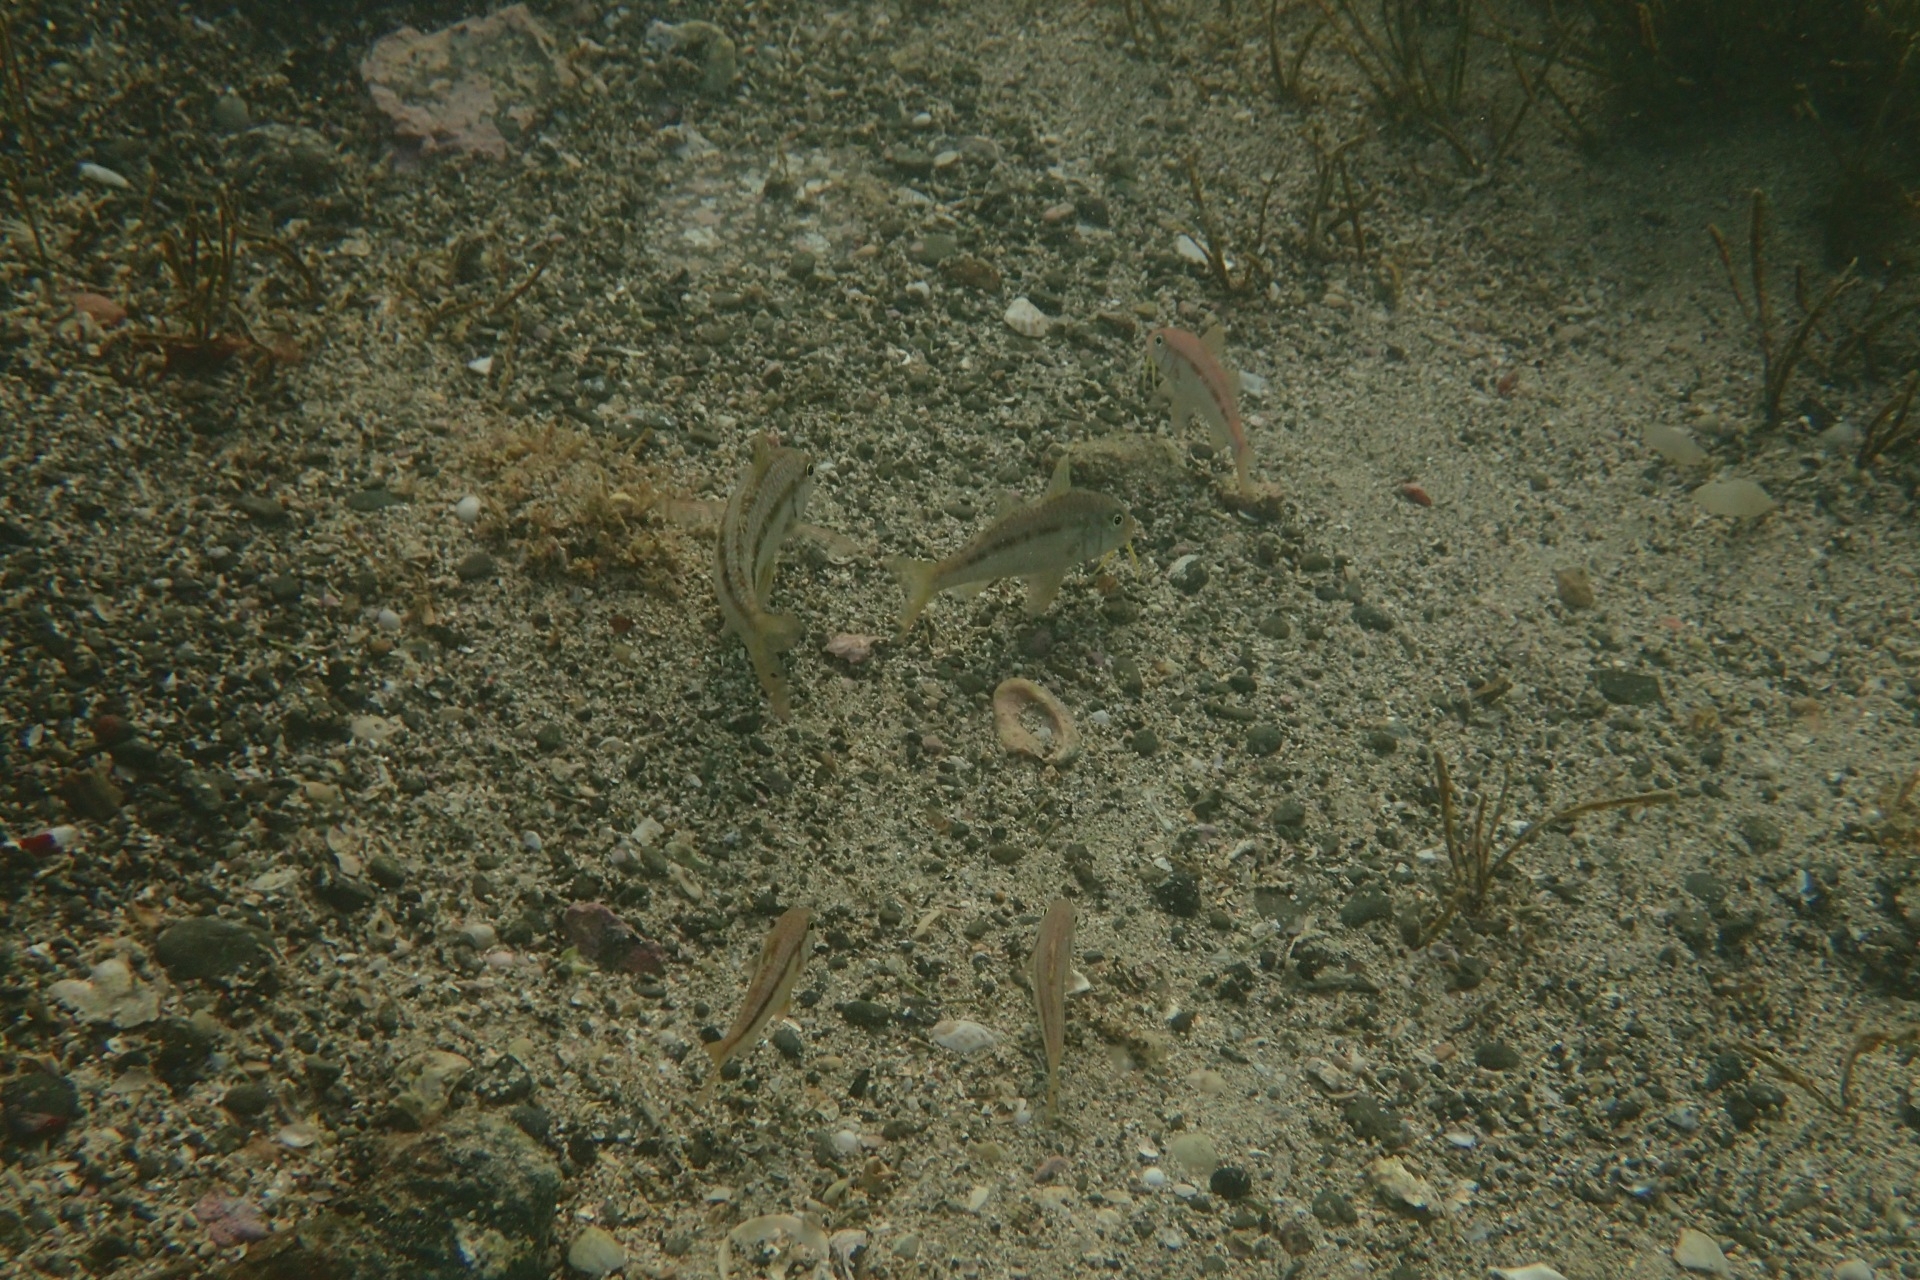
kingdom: Animalia
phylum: Chordata
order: Perciformes
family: Mullidae
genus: Upeneichthys
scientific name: Upeneichthys lineatus
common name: Red mullet
